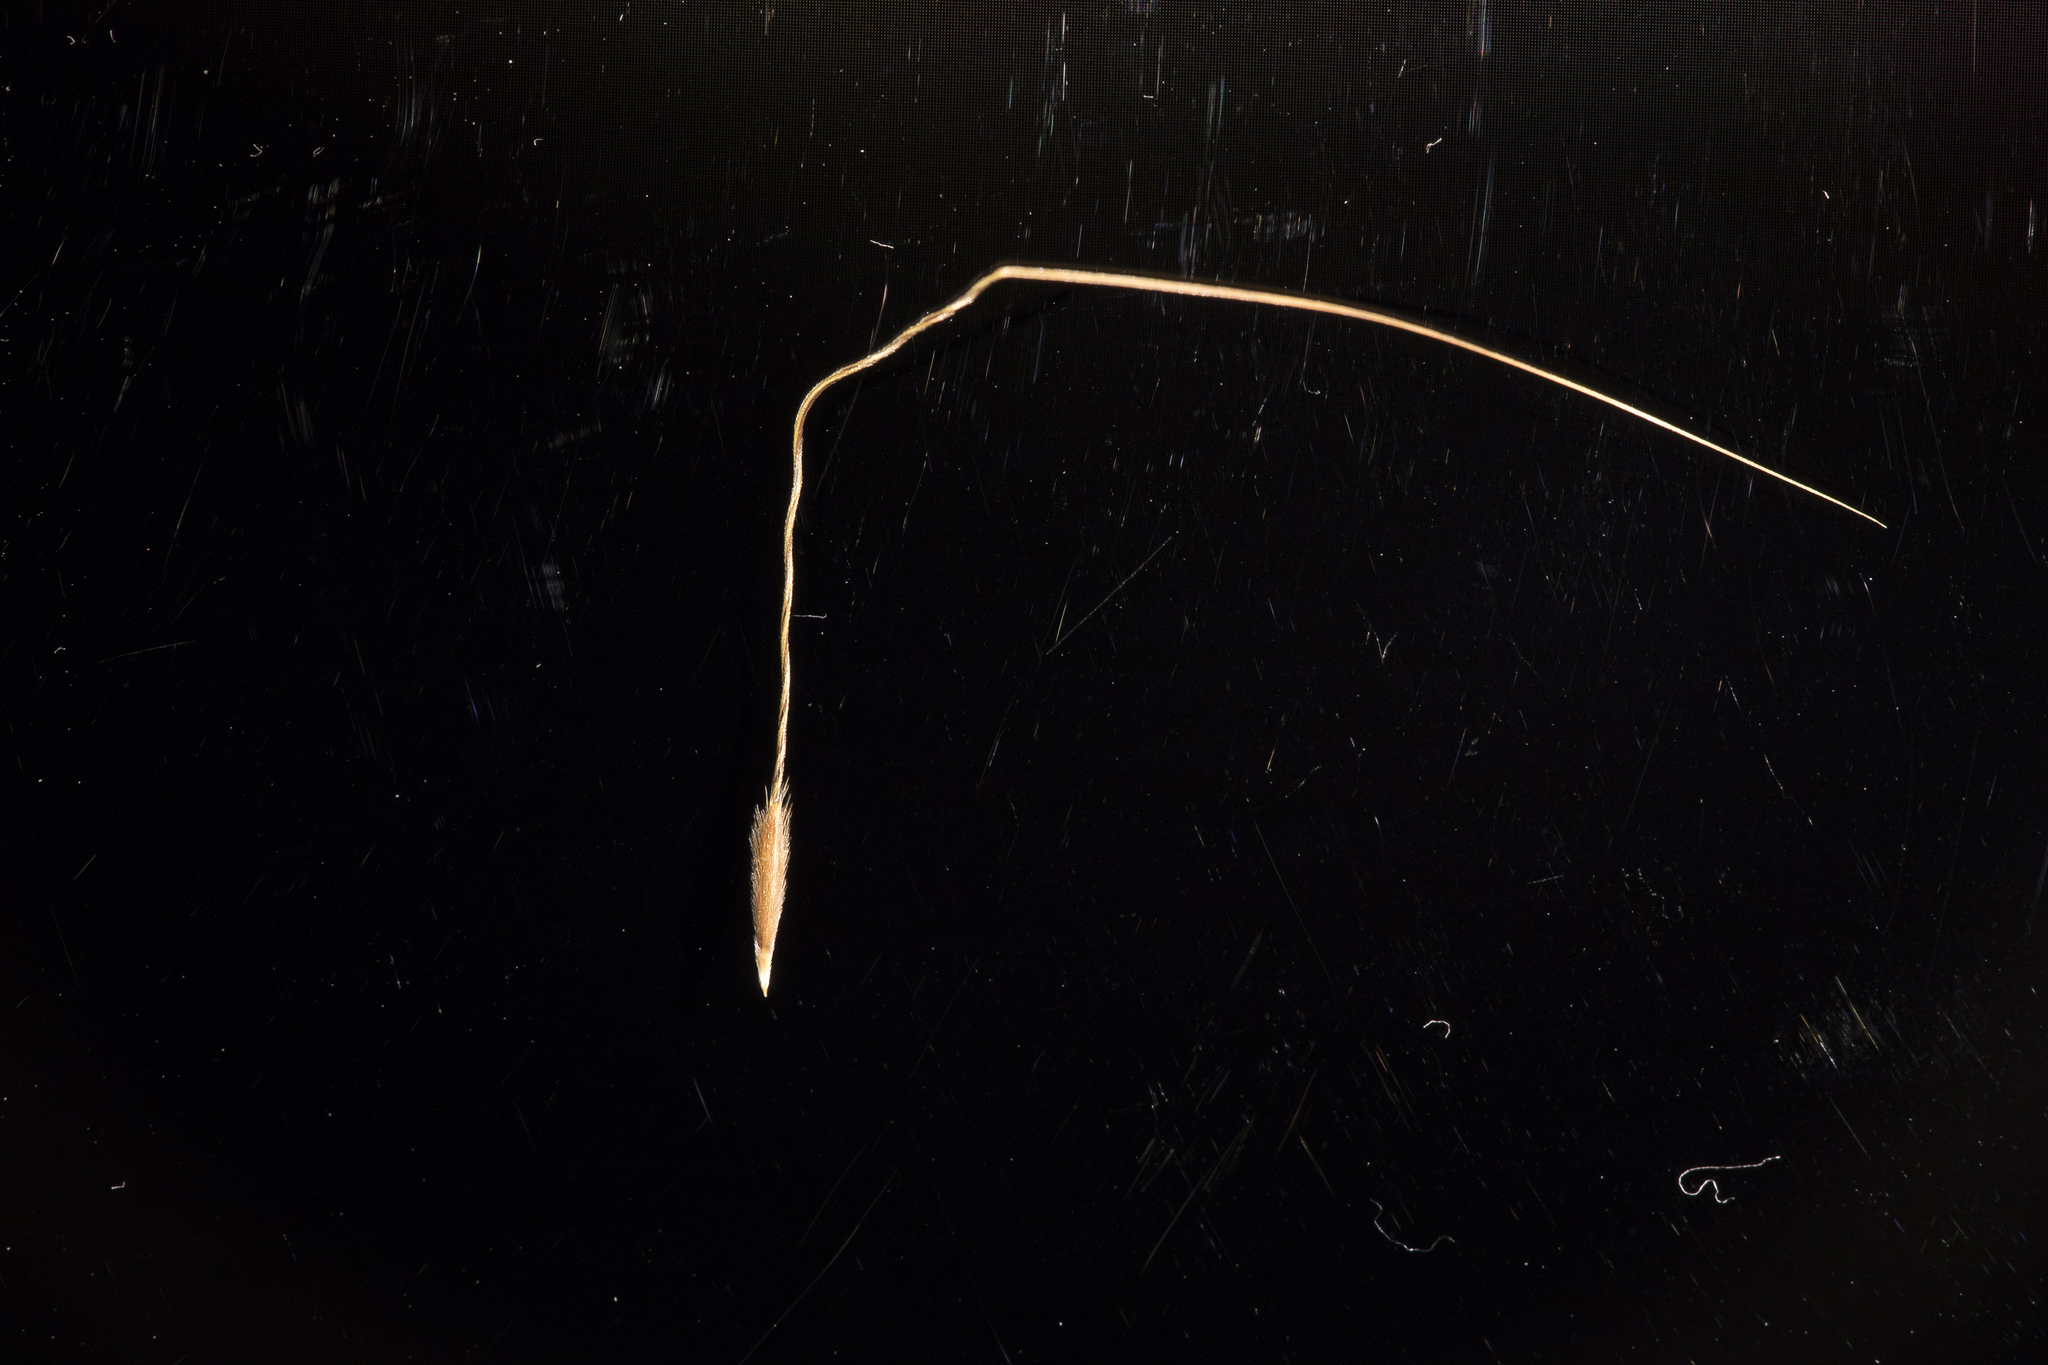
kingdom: Plantae
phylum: Tracheophyta
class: Liliopsida
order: Poales
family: Poaceae
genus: Austrostipa
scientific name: Austrostipa exilis
